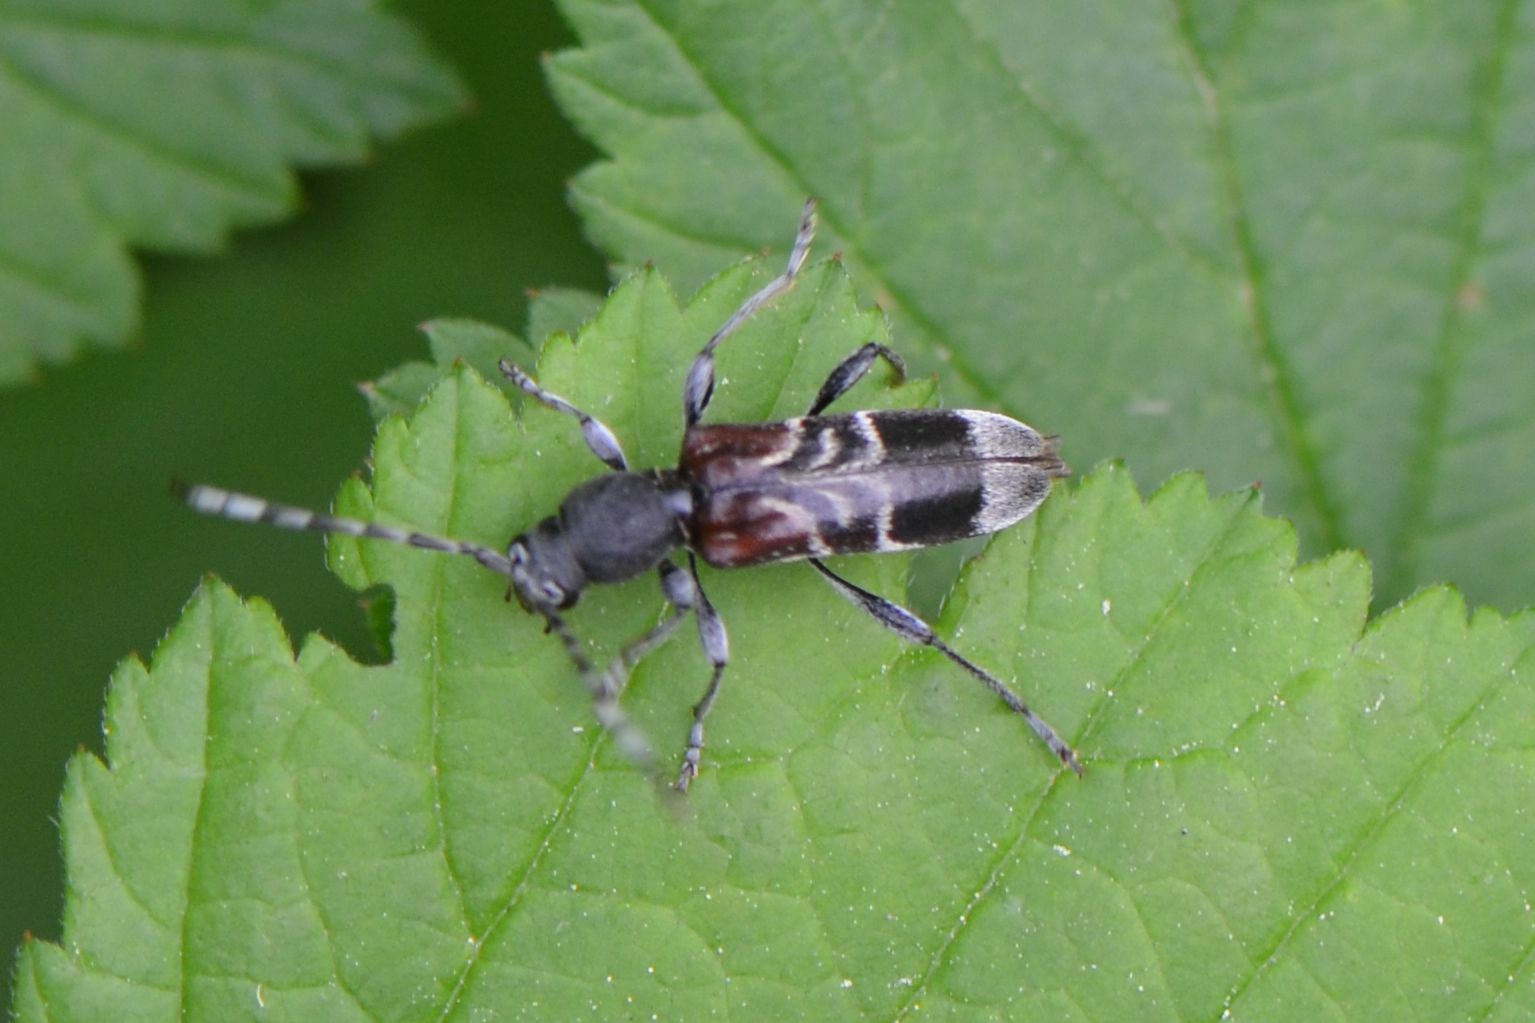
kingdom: Animalia
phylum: Arthropoda
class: Insecta
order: Coleoptera
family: Cerambycidae
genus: Anaglyptus
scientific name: Anaglyptus mysticus
